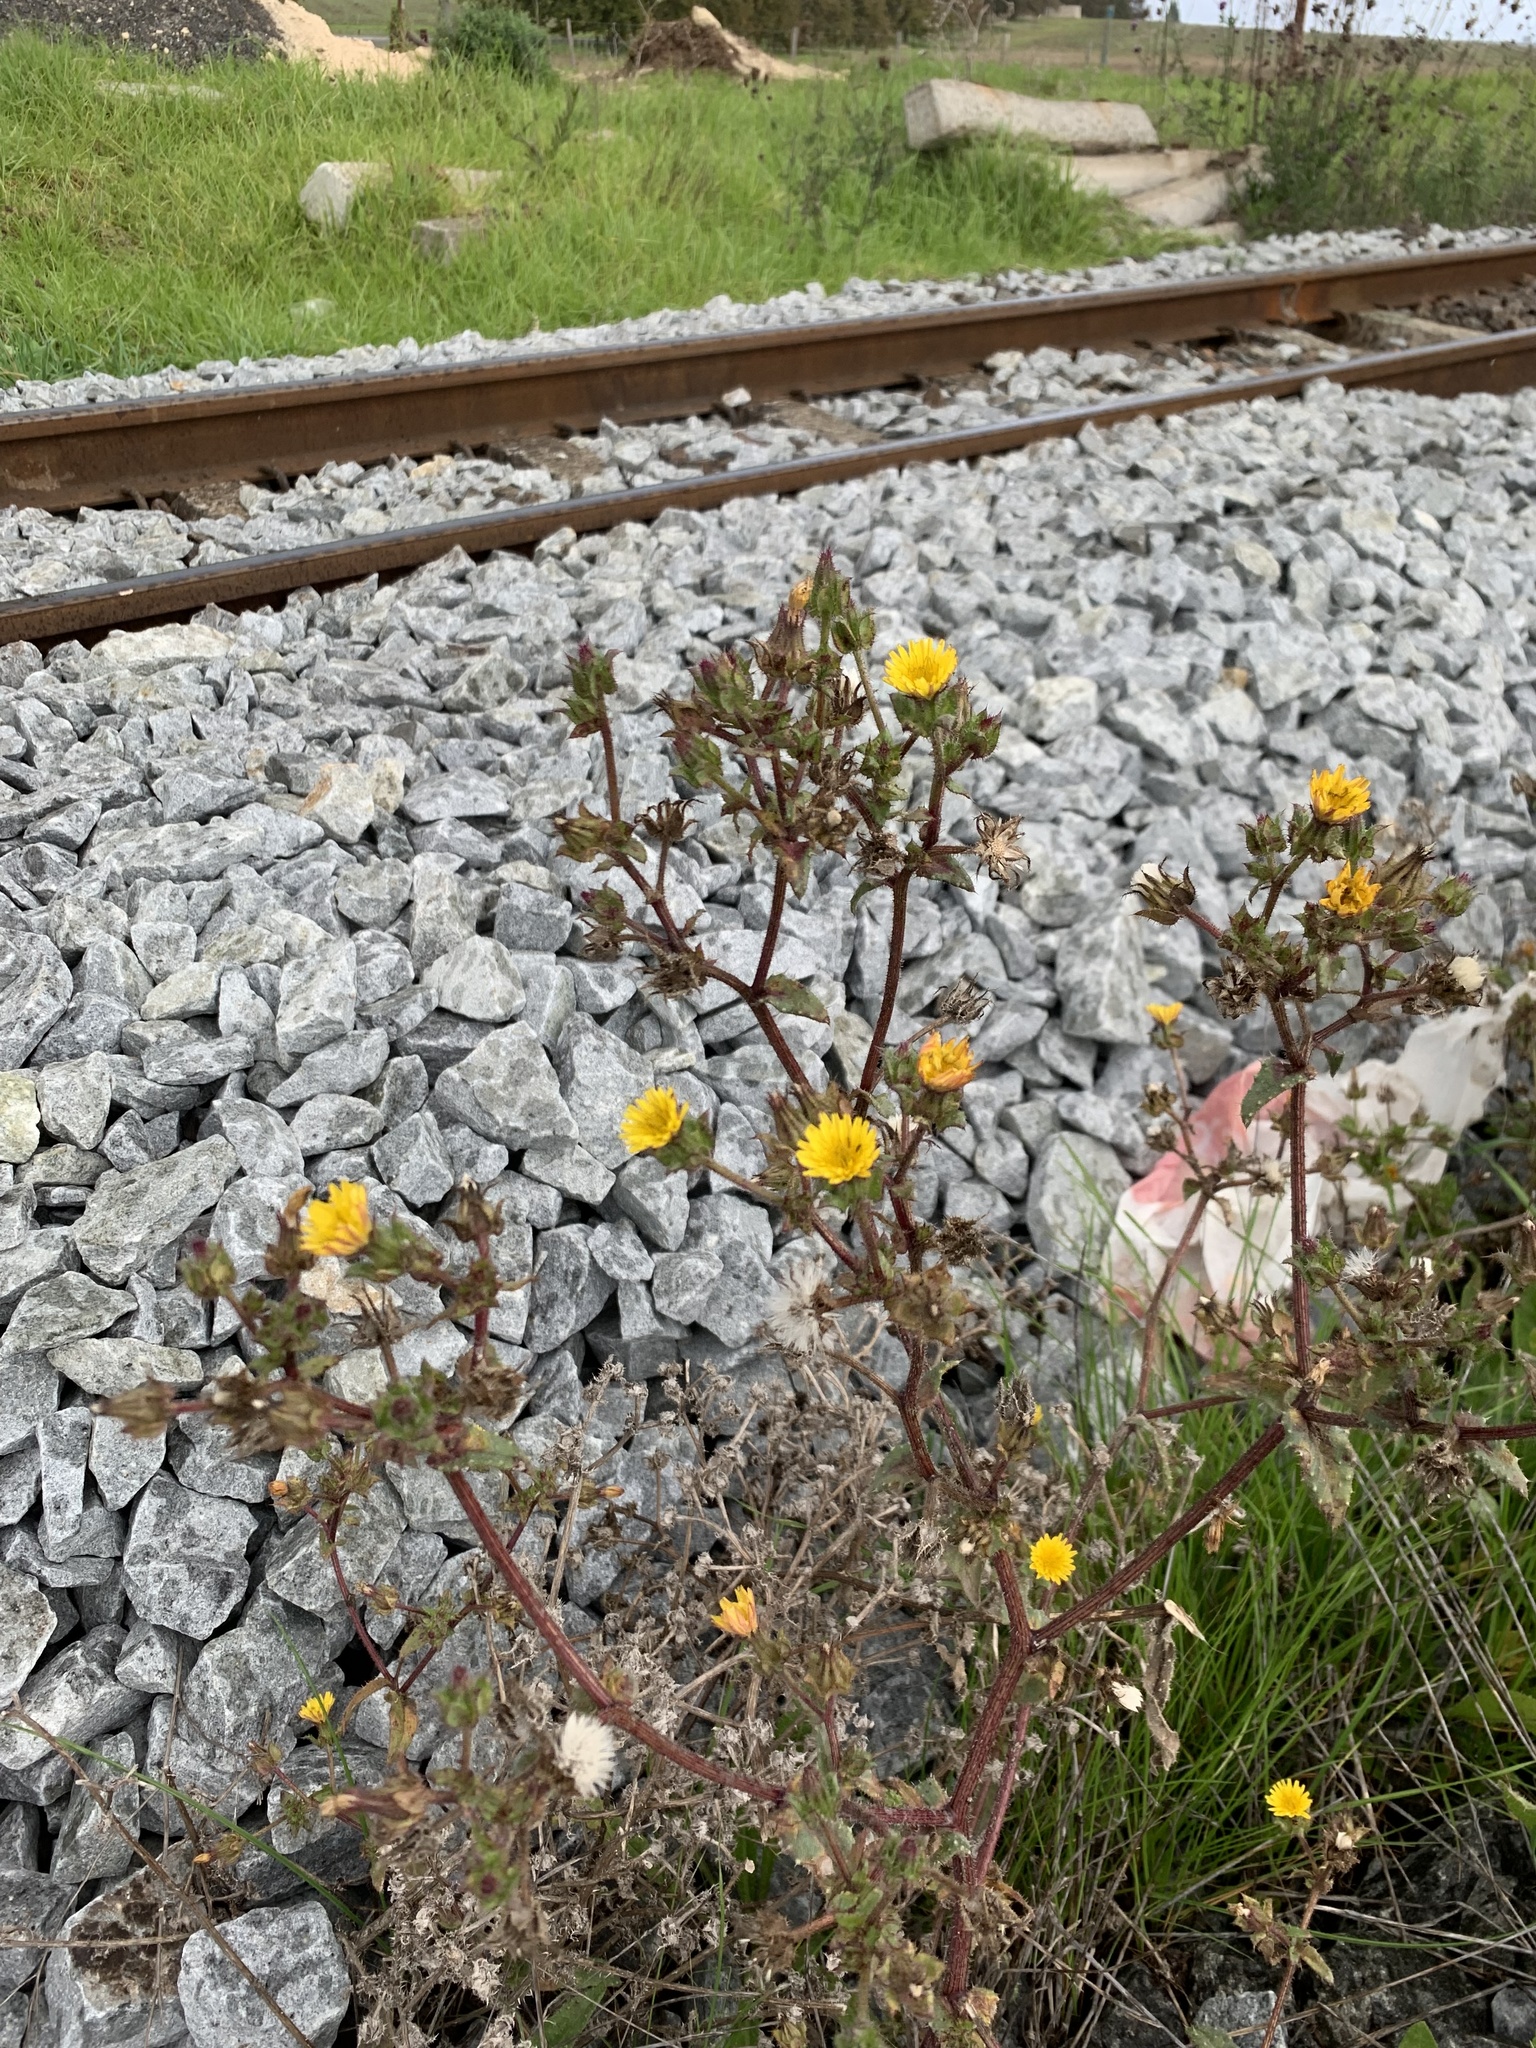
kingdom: Plantae
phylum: Tracheophyta
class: Magnoliopsida
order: Asterales
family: Asteraceae
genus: Helminthotheca
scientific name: Helminthotheca echioides
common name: Ox-tongue
